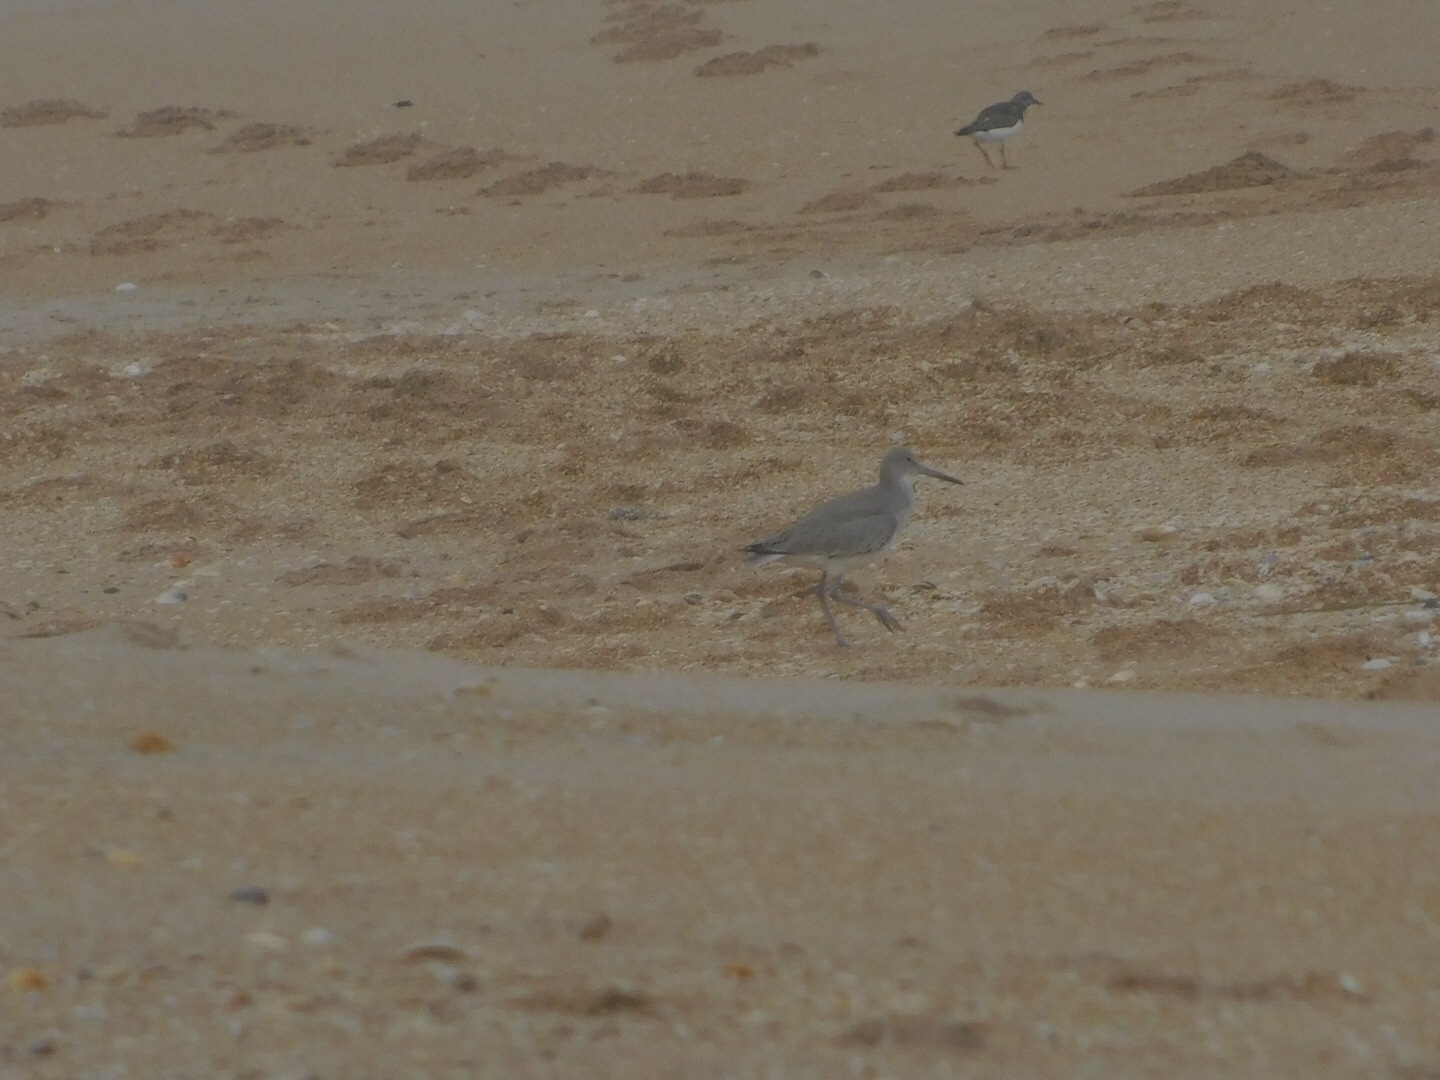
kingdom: Animalia
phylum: Chordata
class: Aves
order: Charadriiformes
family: Scolopacidae
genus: Tringa
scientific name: Tringa semipalmata
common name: Willet
